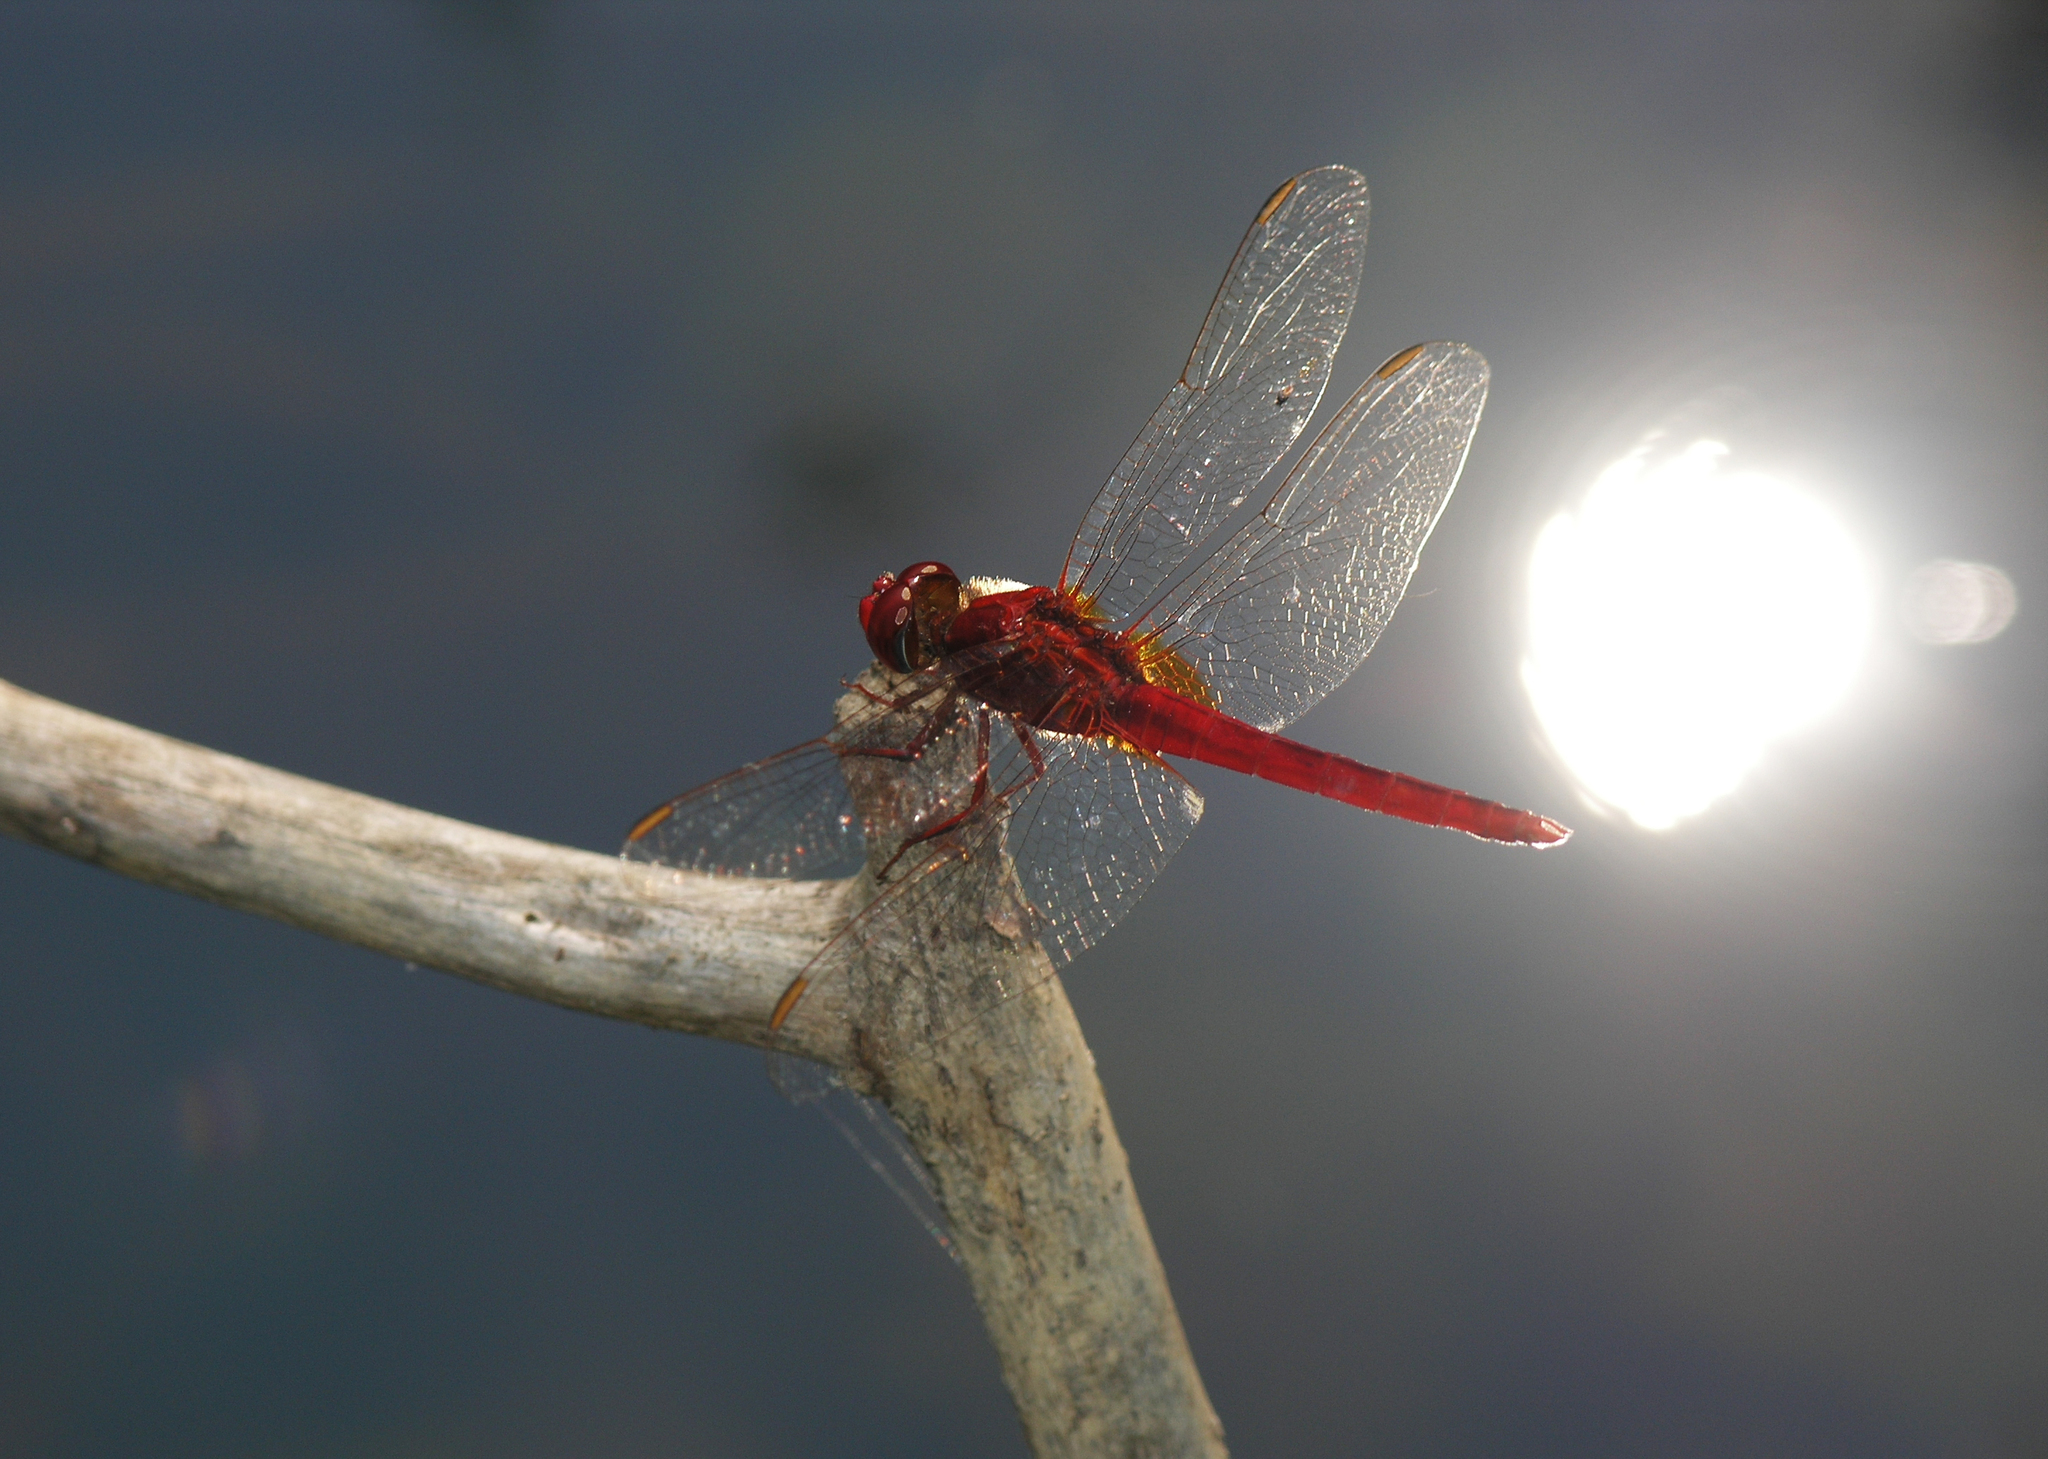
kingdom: Animalia
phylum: Arthropoda
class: Insecta
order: Odonata
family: Libellulidae
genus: Crocothemis
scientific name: Crocothemis servilia
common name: Scarlet skimmer
